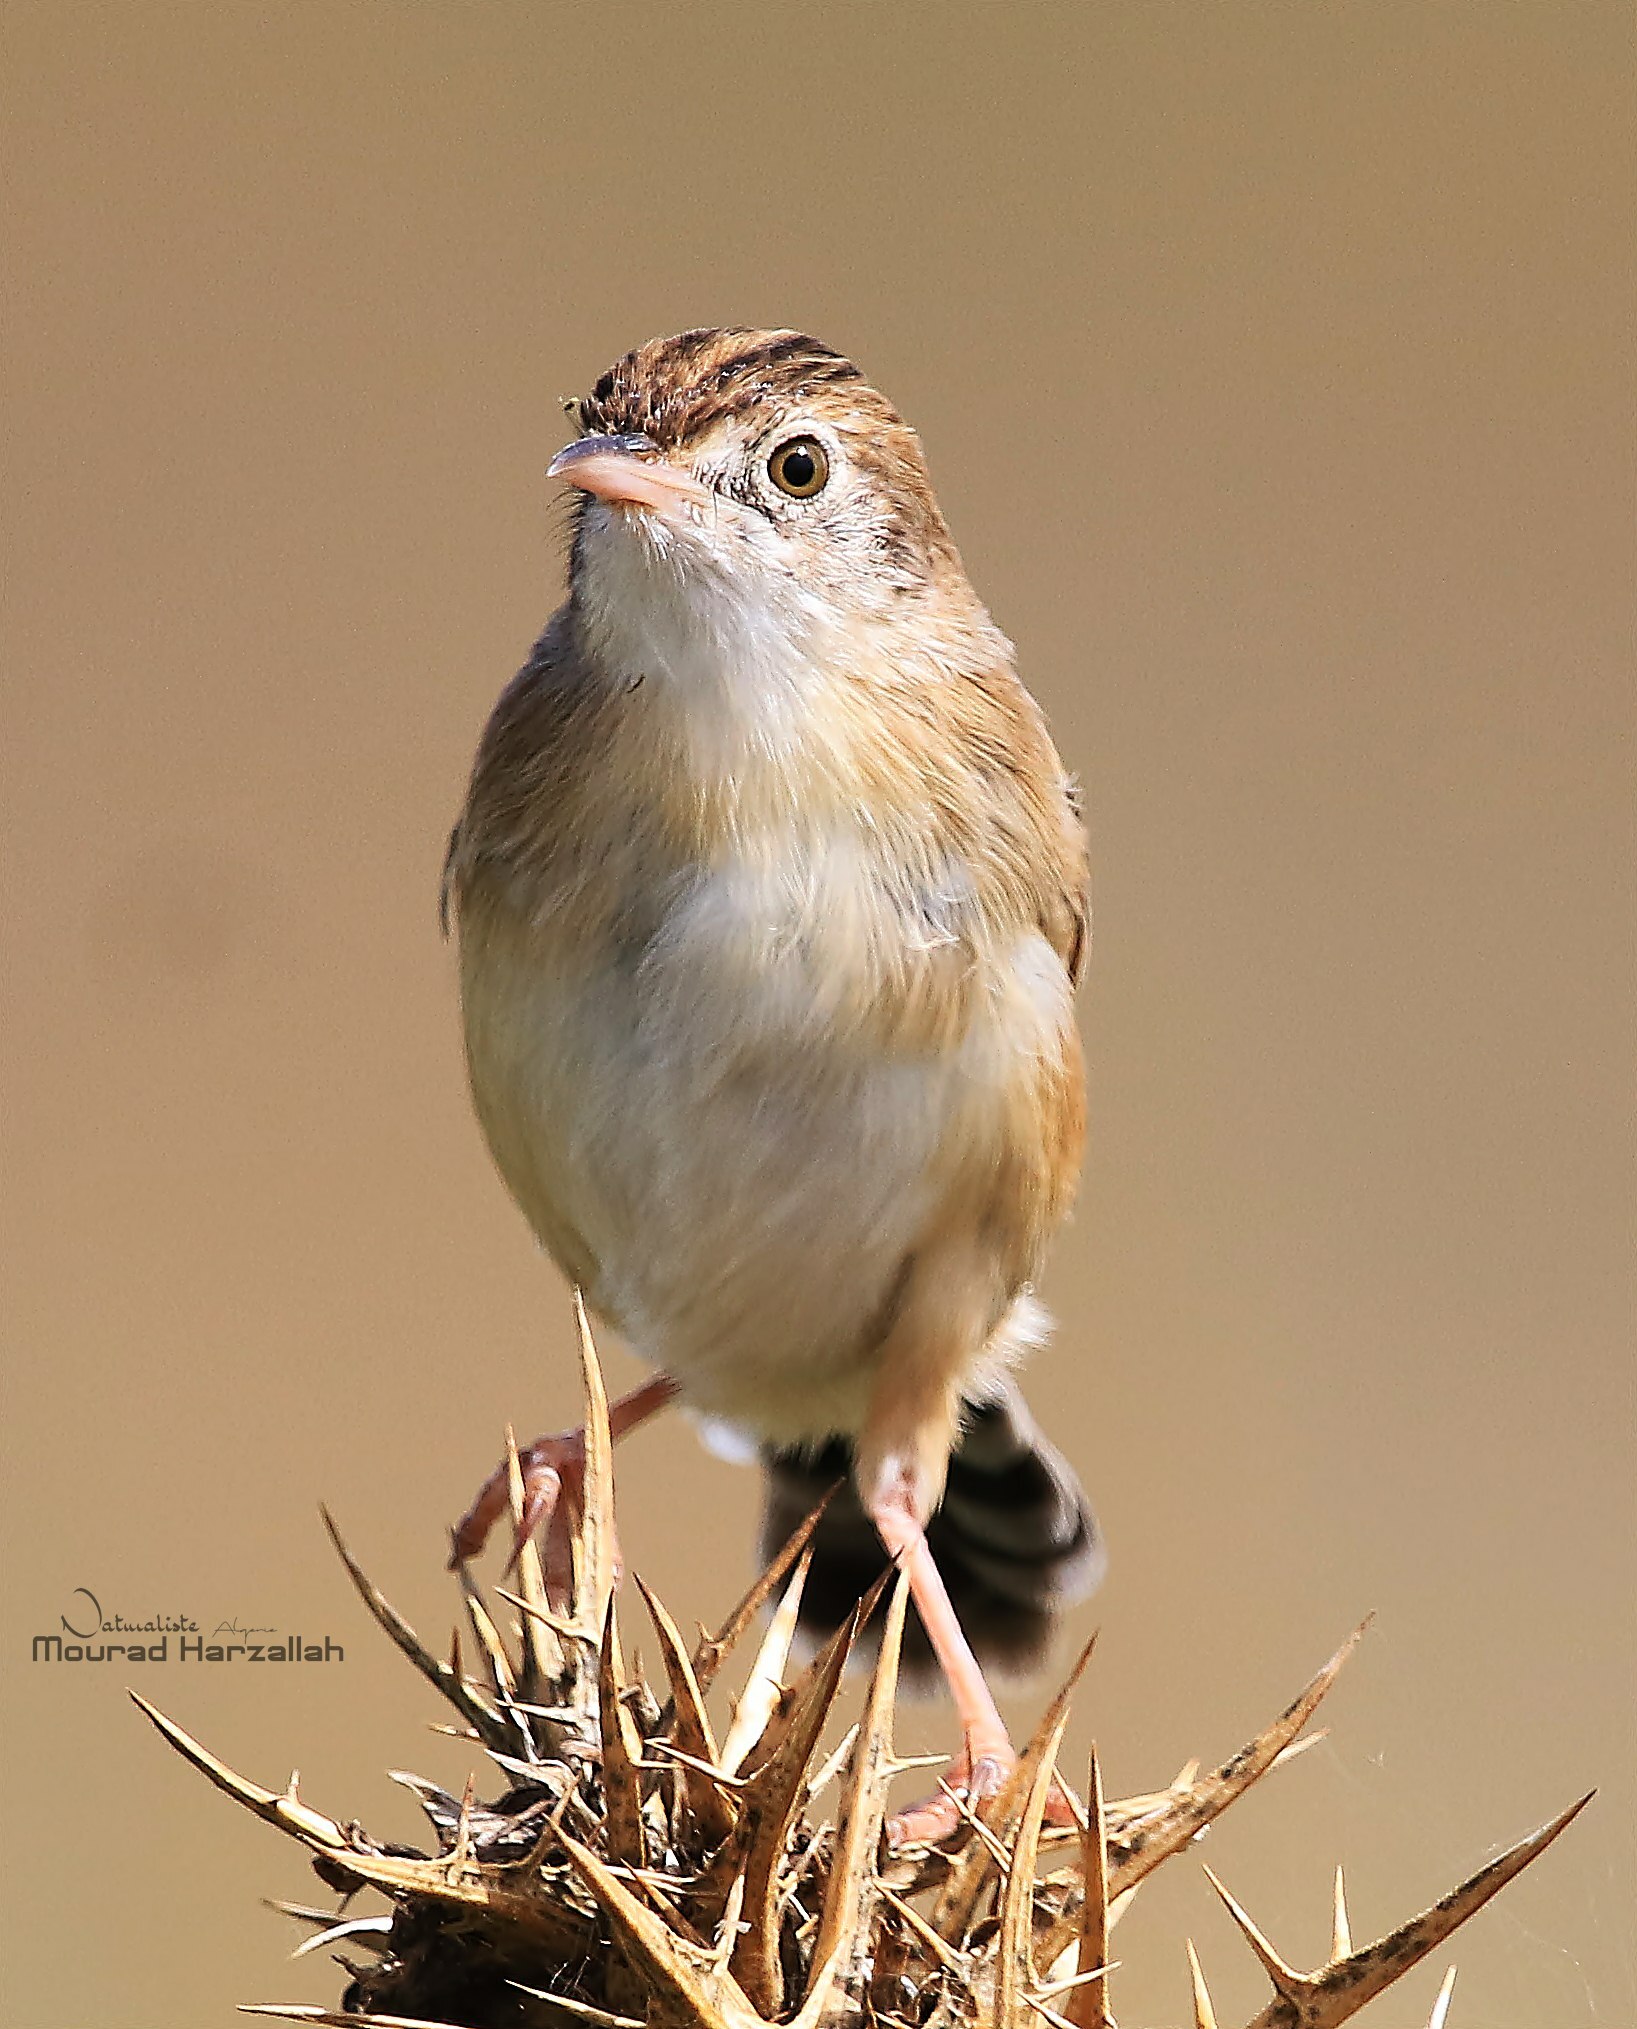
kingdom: Animalia
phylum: Chordata
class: Aves
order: Passeriformes
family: Cisticolidae
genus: Cisticola
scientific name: Cisticola juncidis
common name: Zitting cisticola
